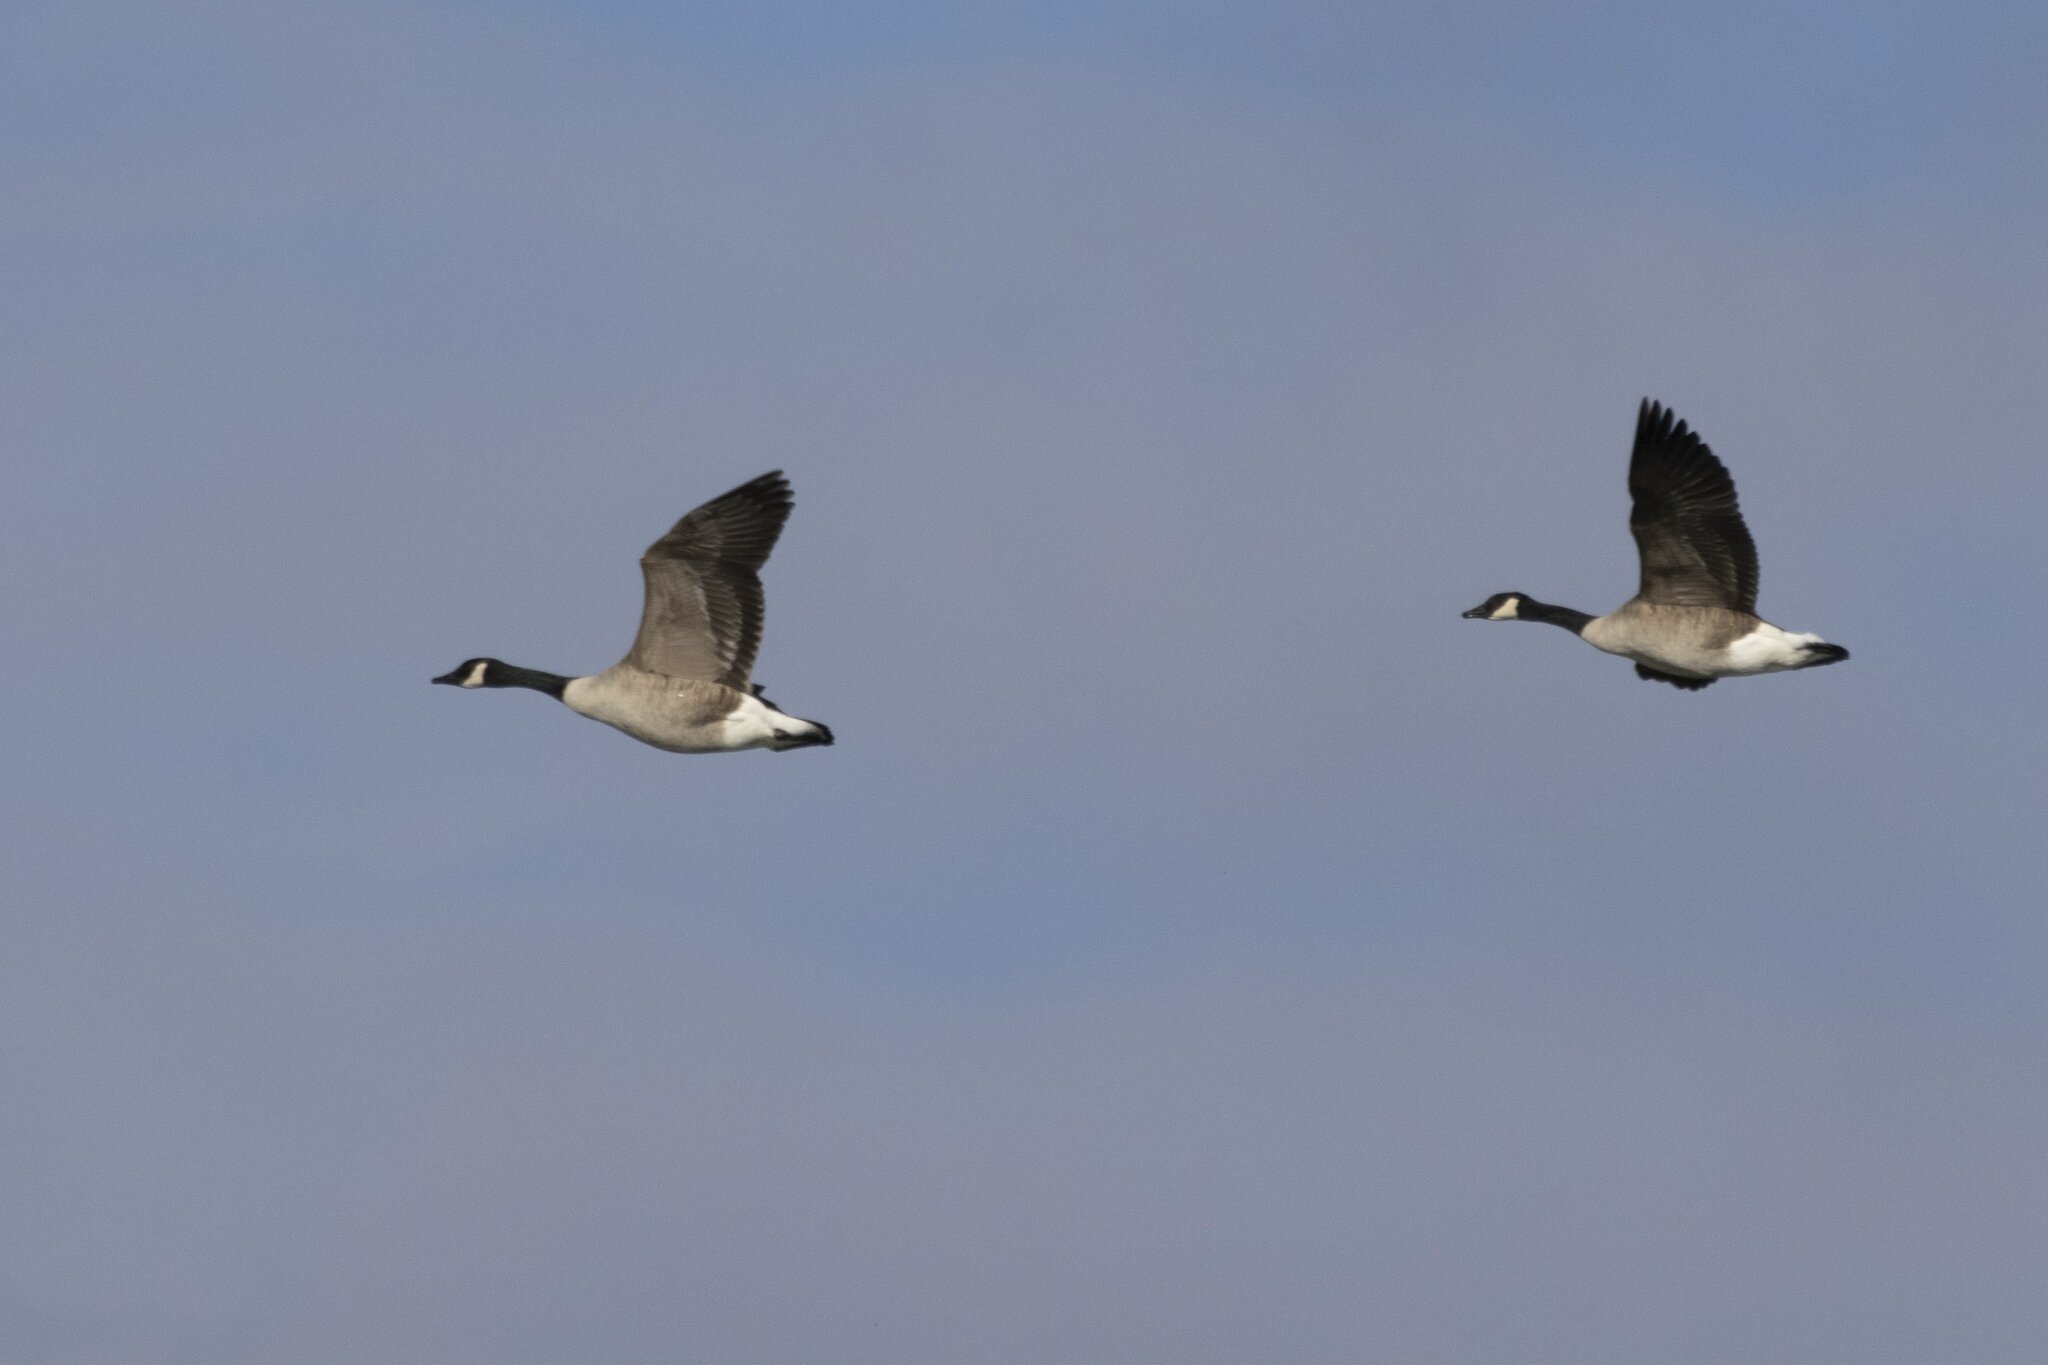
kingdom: Animalia
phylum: Chordata
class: Aves
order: Anseriformes
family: Anatidae
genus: Branta
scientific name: Branta canadensis
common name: Canada goose
